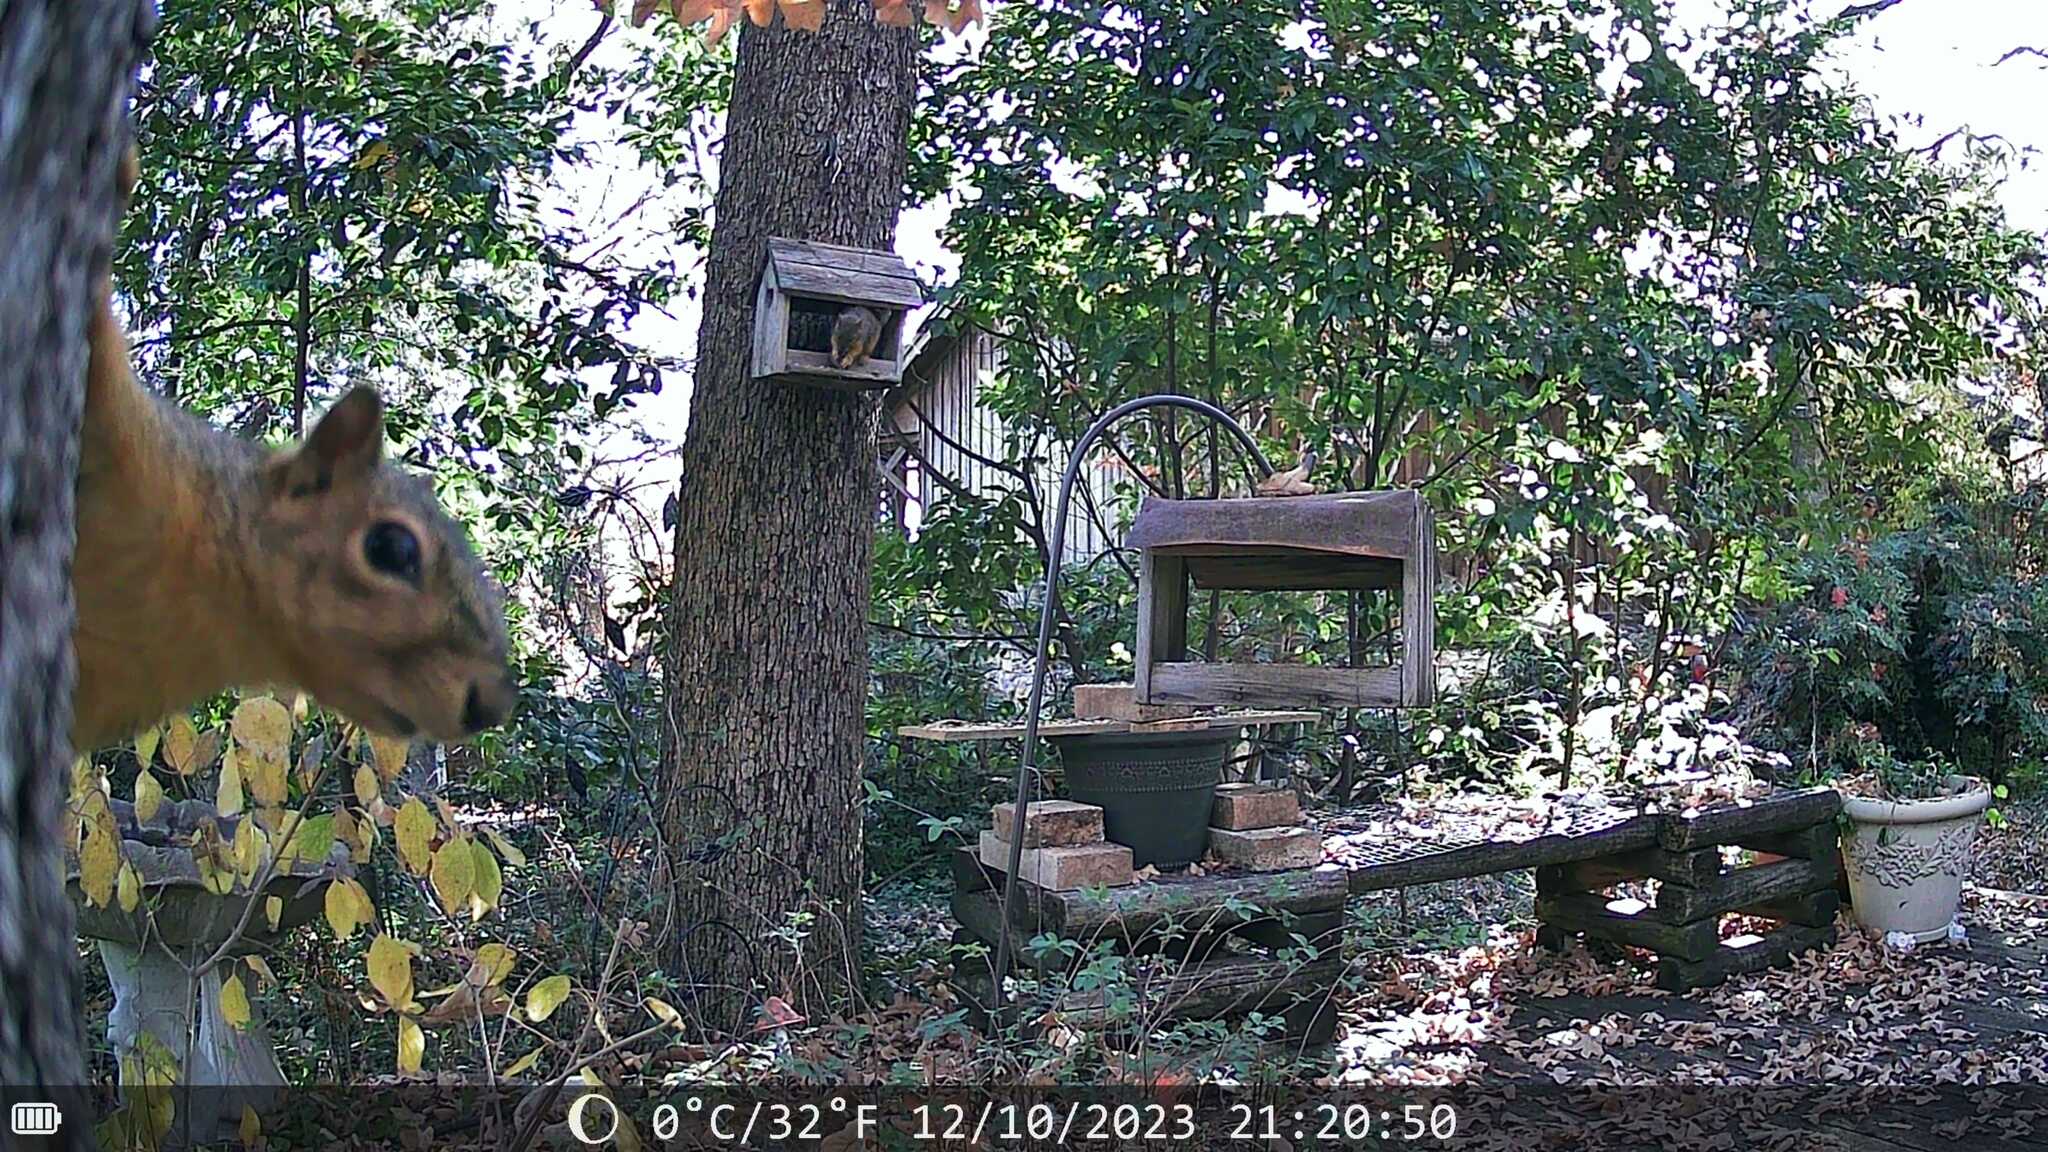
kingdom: Animalia
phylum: Chordata
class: Mammalia
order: Rodentia
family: Sciuridae
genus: Sciurus
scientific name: Sciurus niger
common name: Fox squirrel
